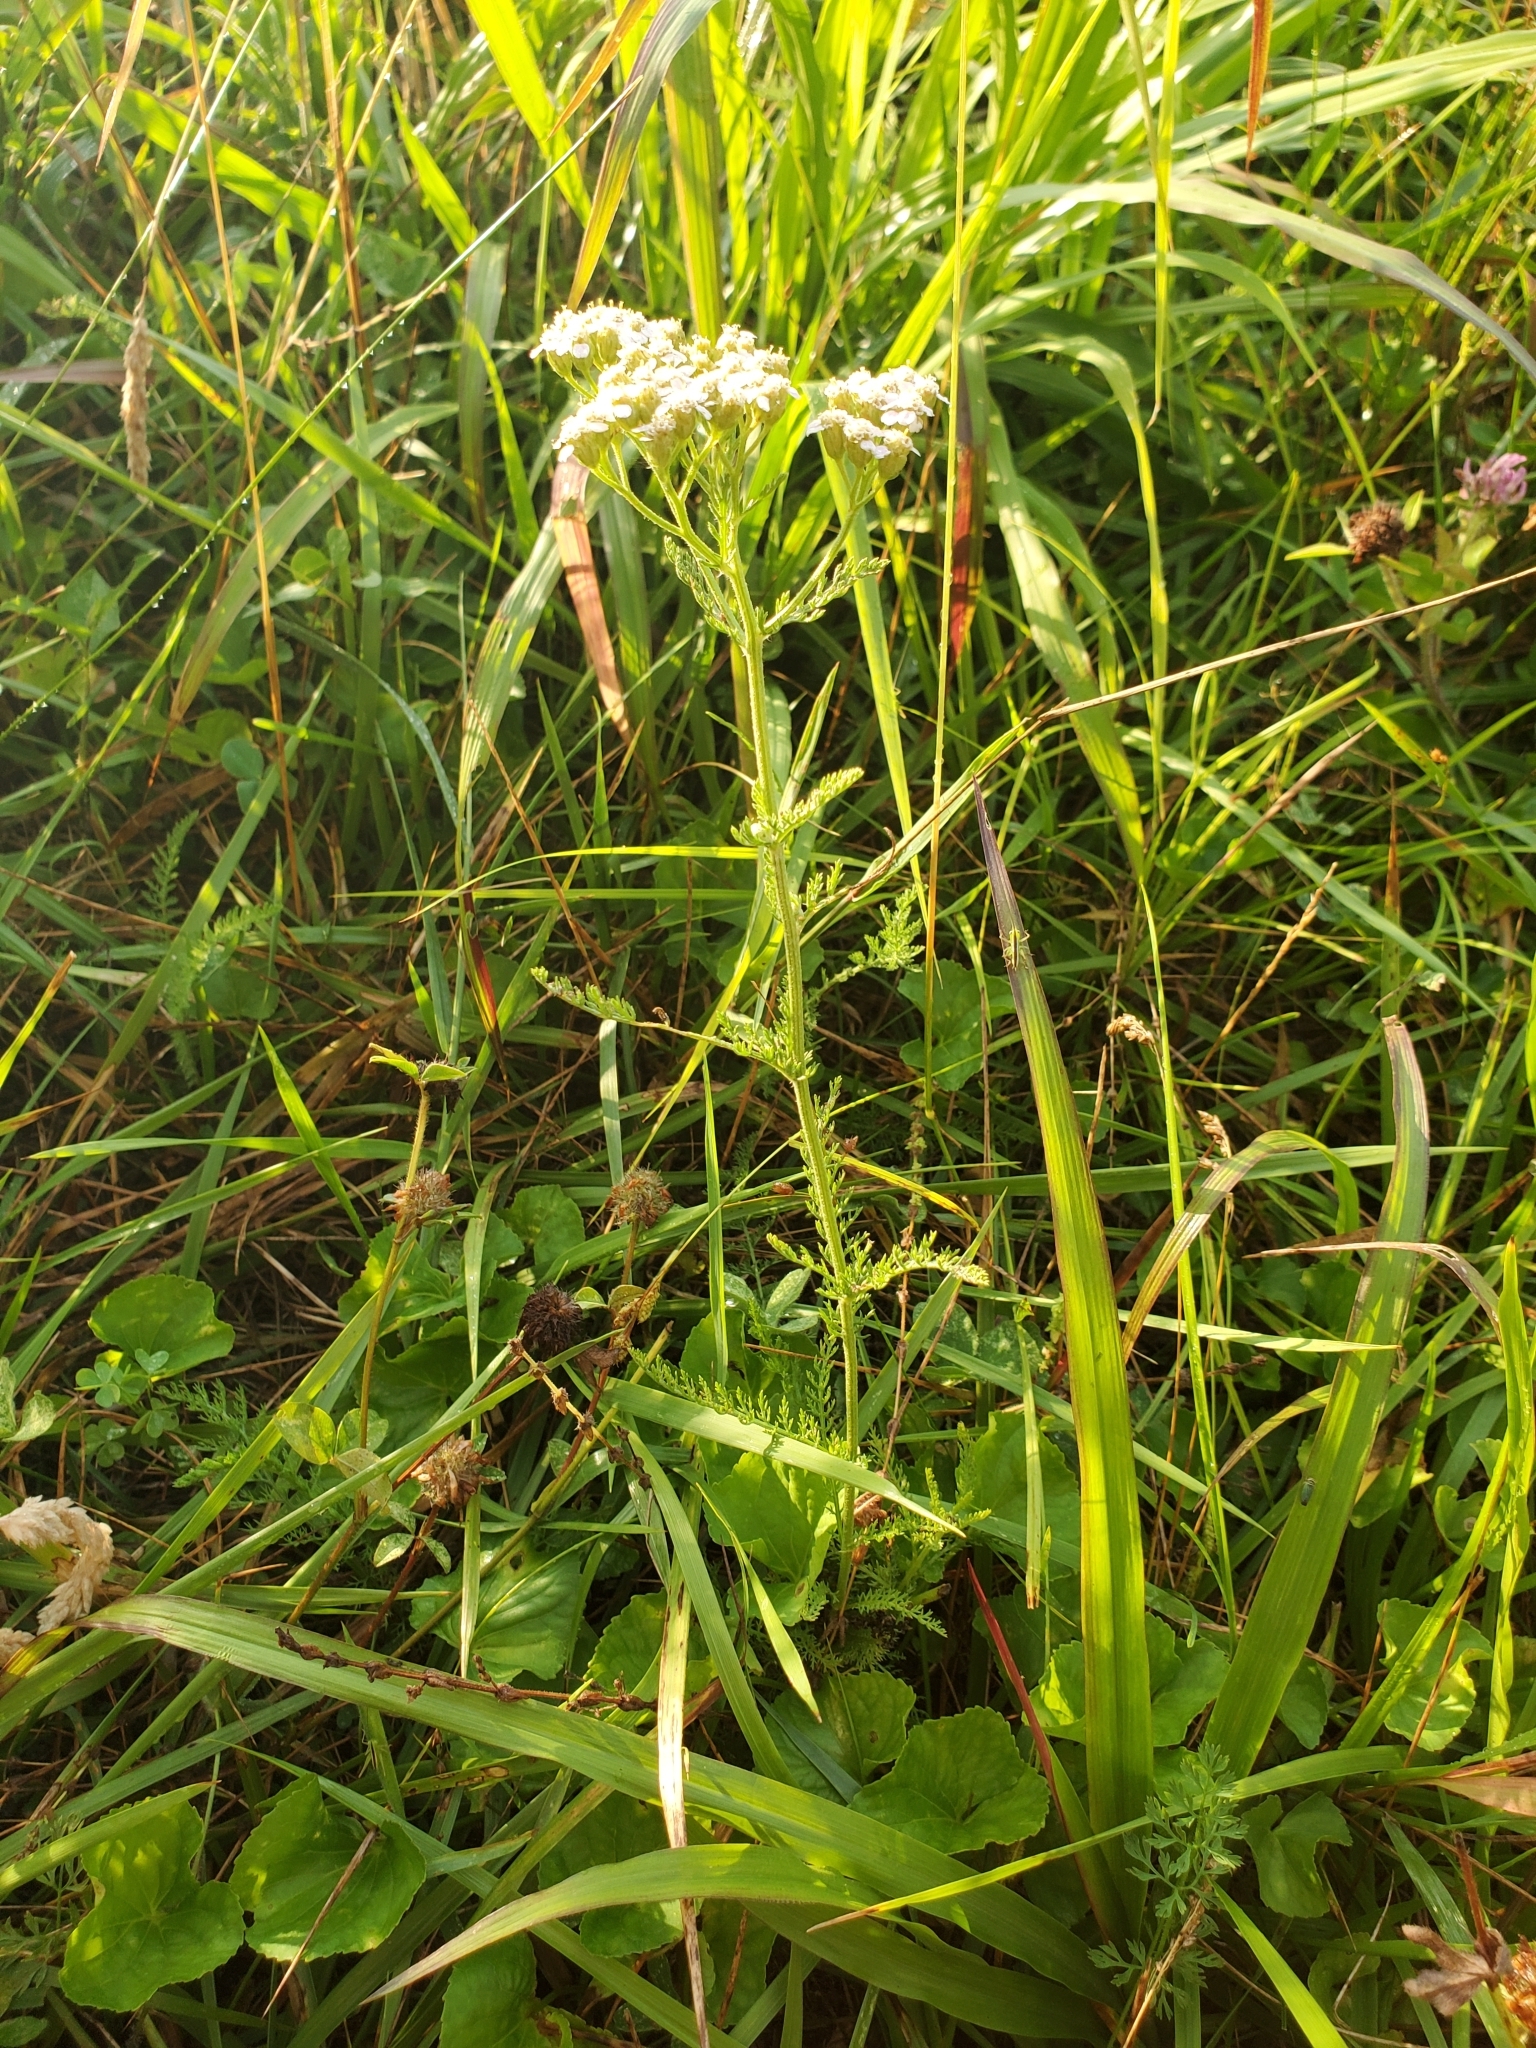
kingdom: Plantae
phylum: Tracheophyta
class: Magnoliopsida
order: Asterales
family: Asteraceae
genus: Achillea
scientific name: Achillea millefolium
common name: Yarrow
